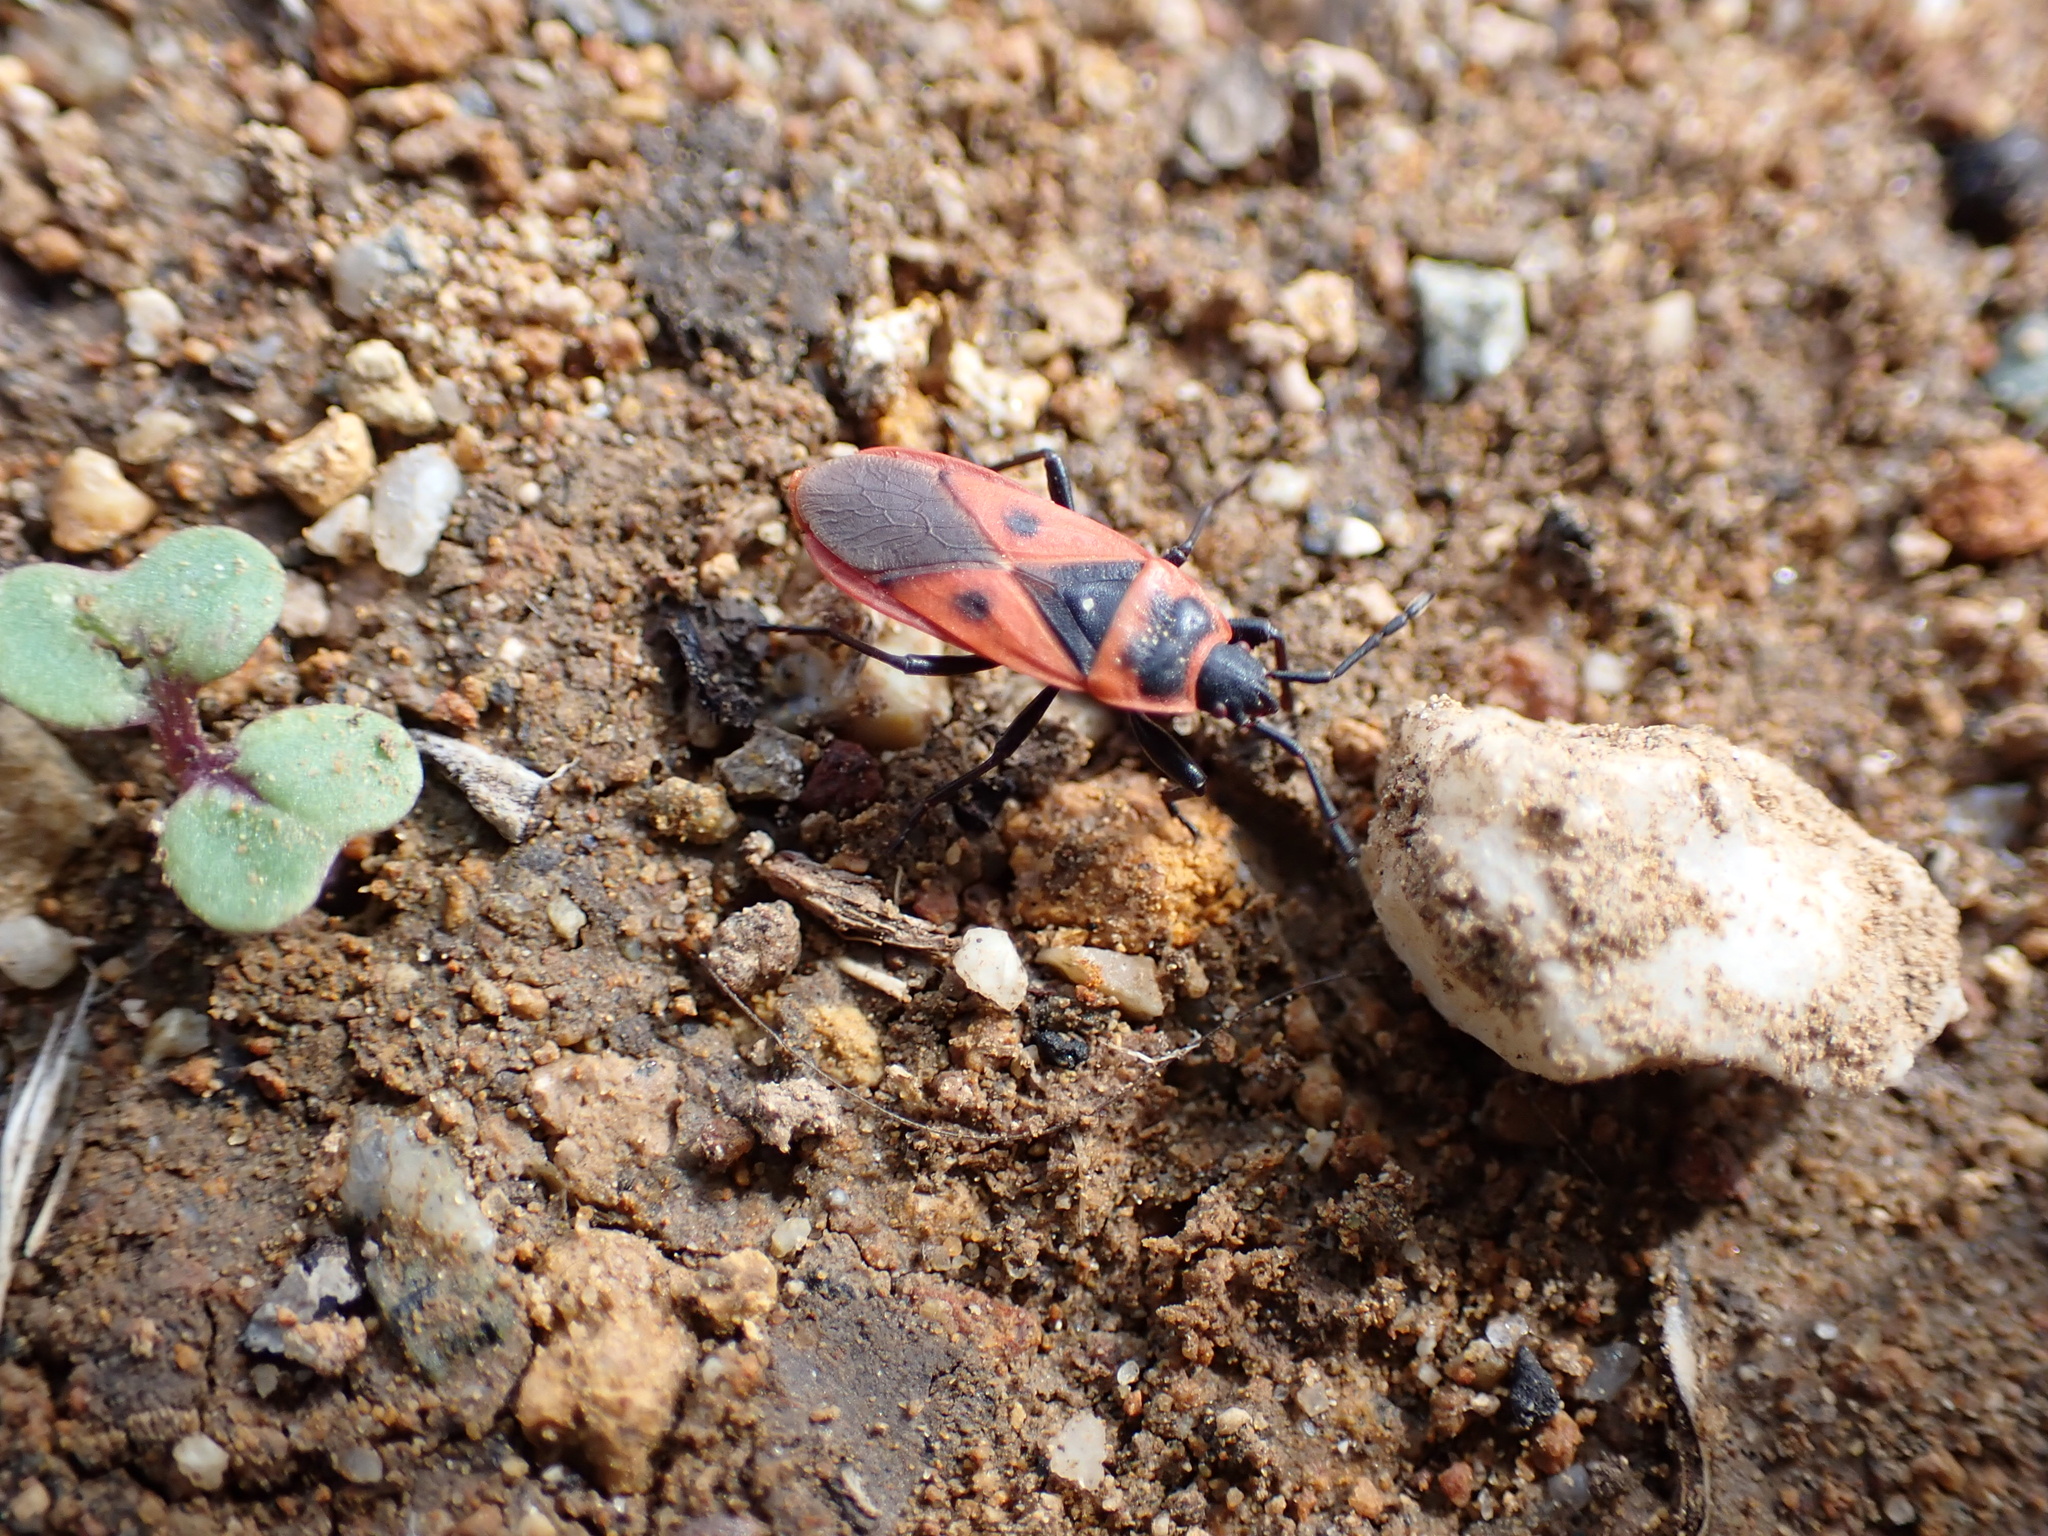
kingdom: Animalia
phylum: Arthropoda
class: Insecta
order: Hemiptera
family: Pyrrhocoridae
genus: Scantius
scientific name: Scantius aegyptius
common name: Red bug
